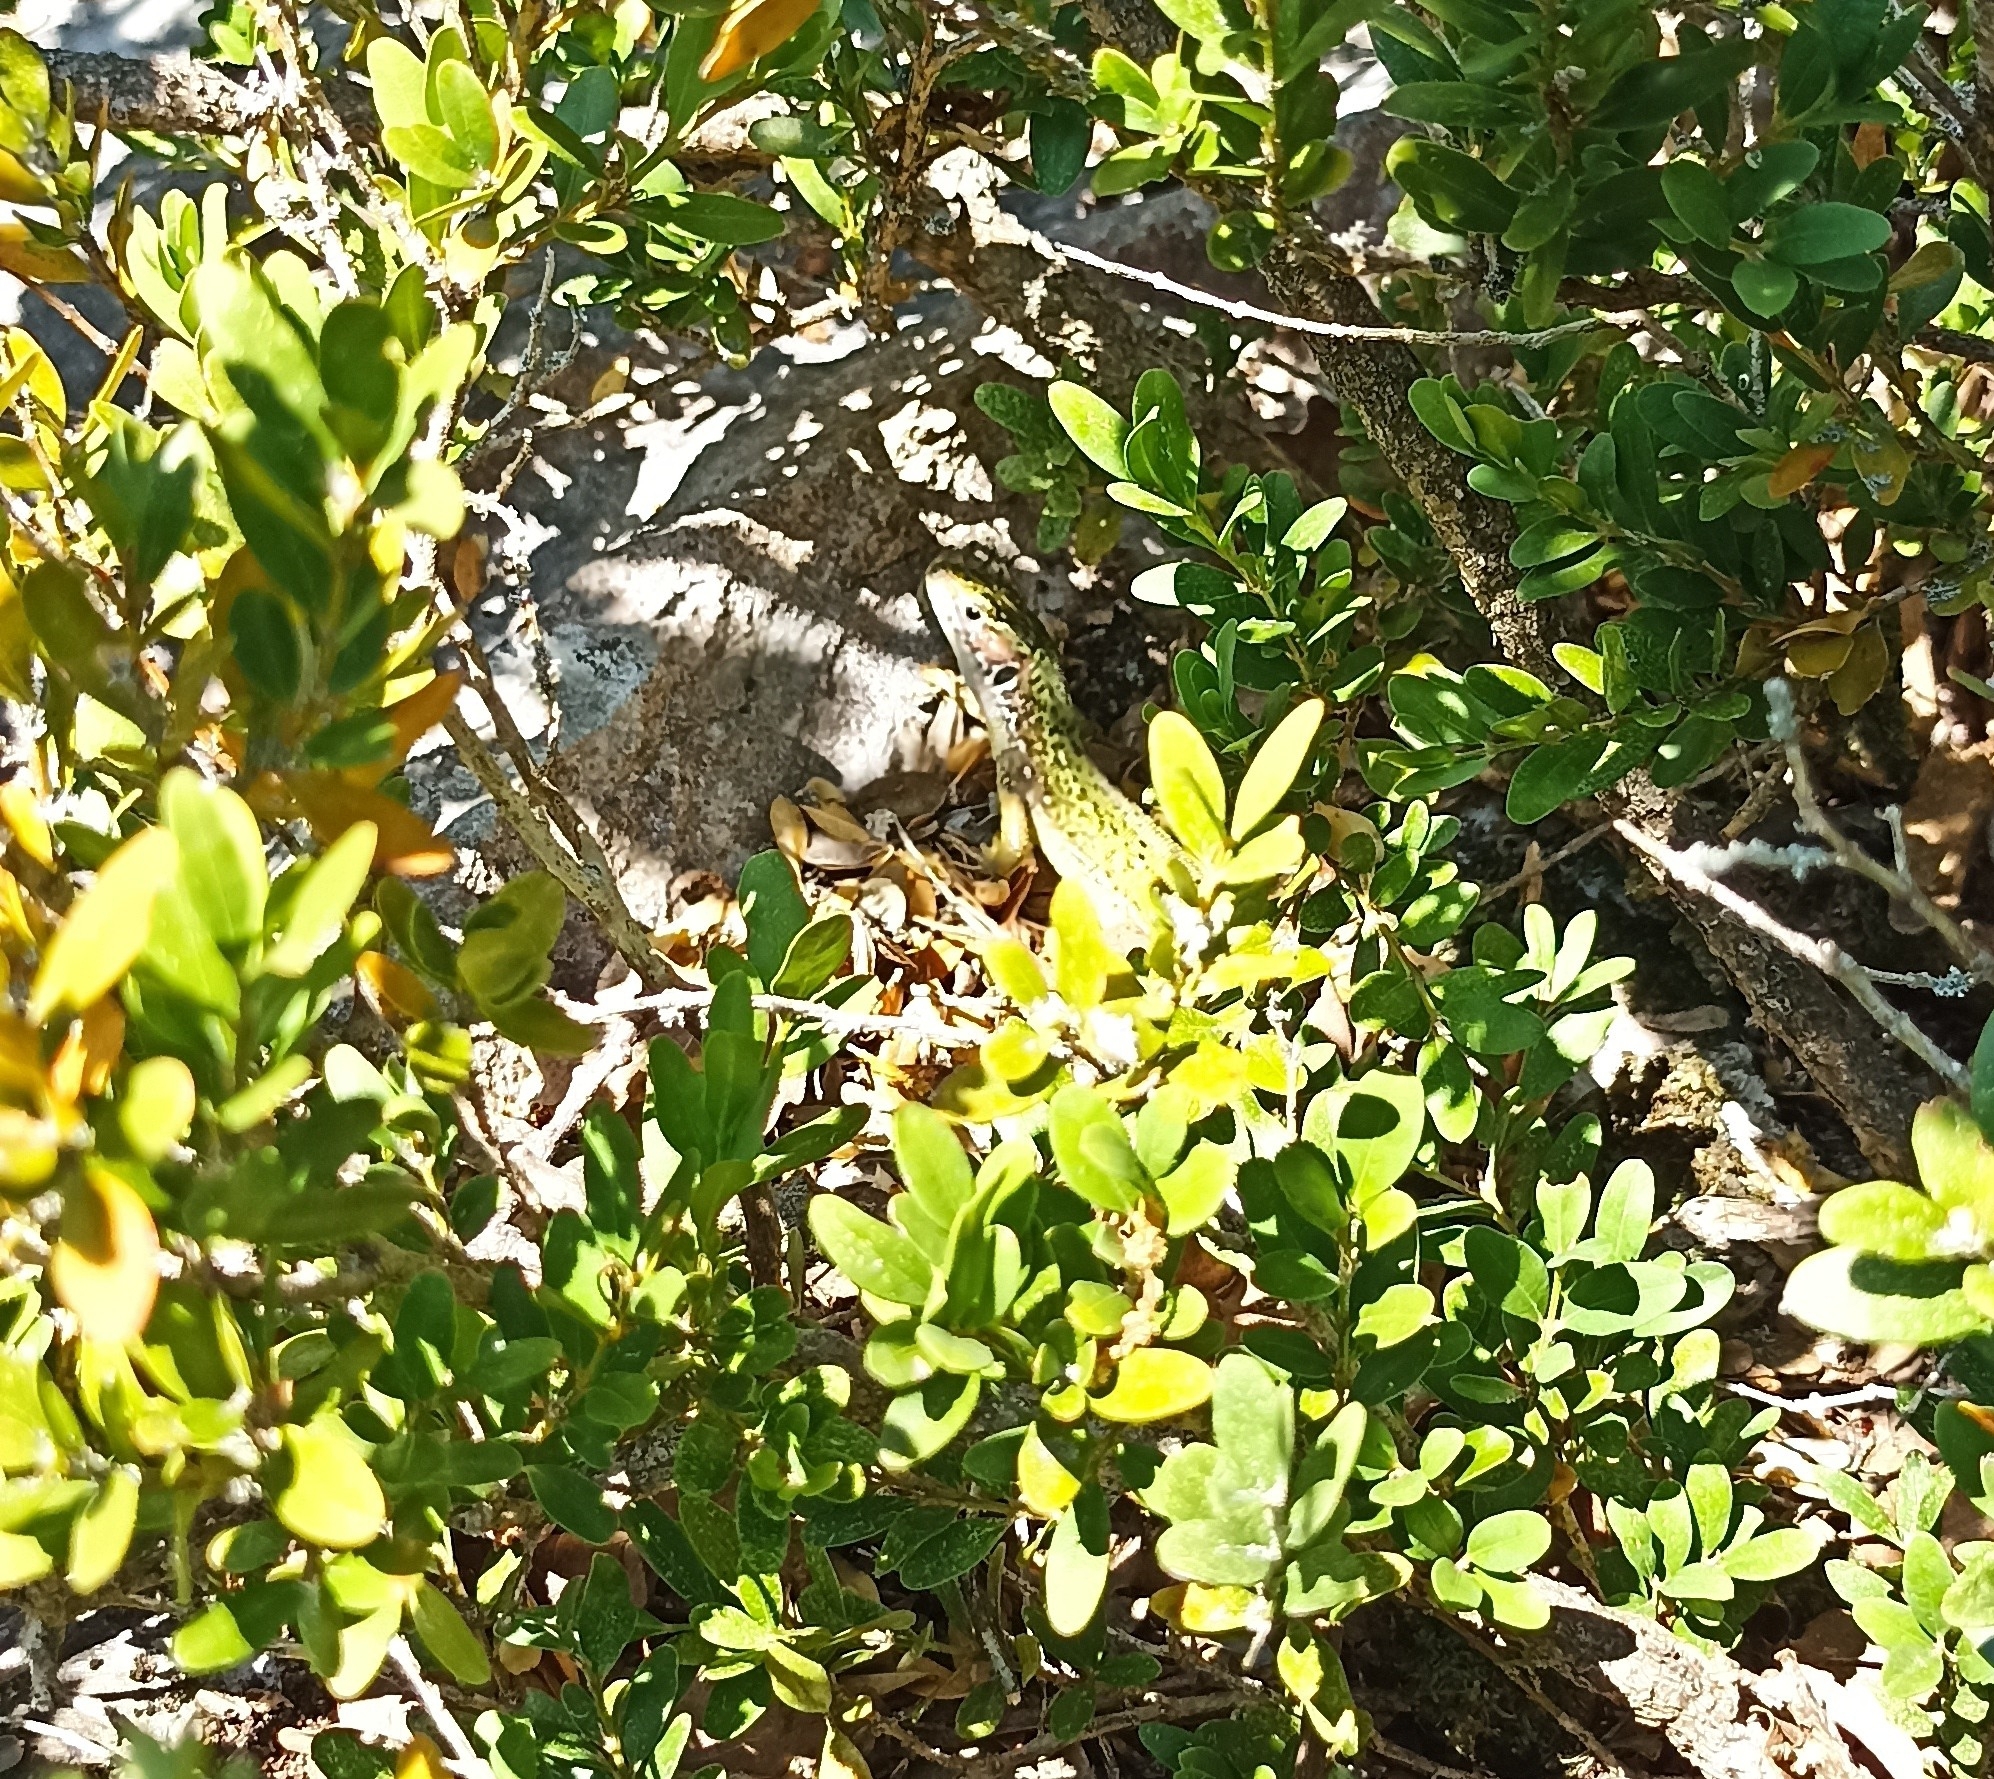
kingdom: Animalia
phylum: Chordata
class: Squamata
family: Lacertidae
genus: Lacerta
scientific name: Lacerta bilineata
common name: Western green lizard
